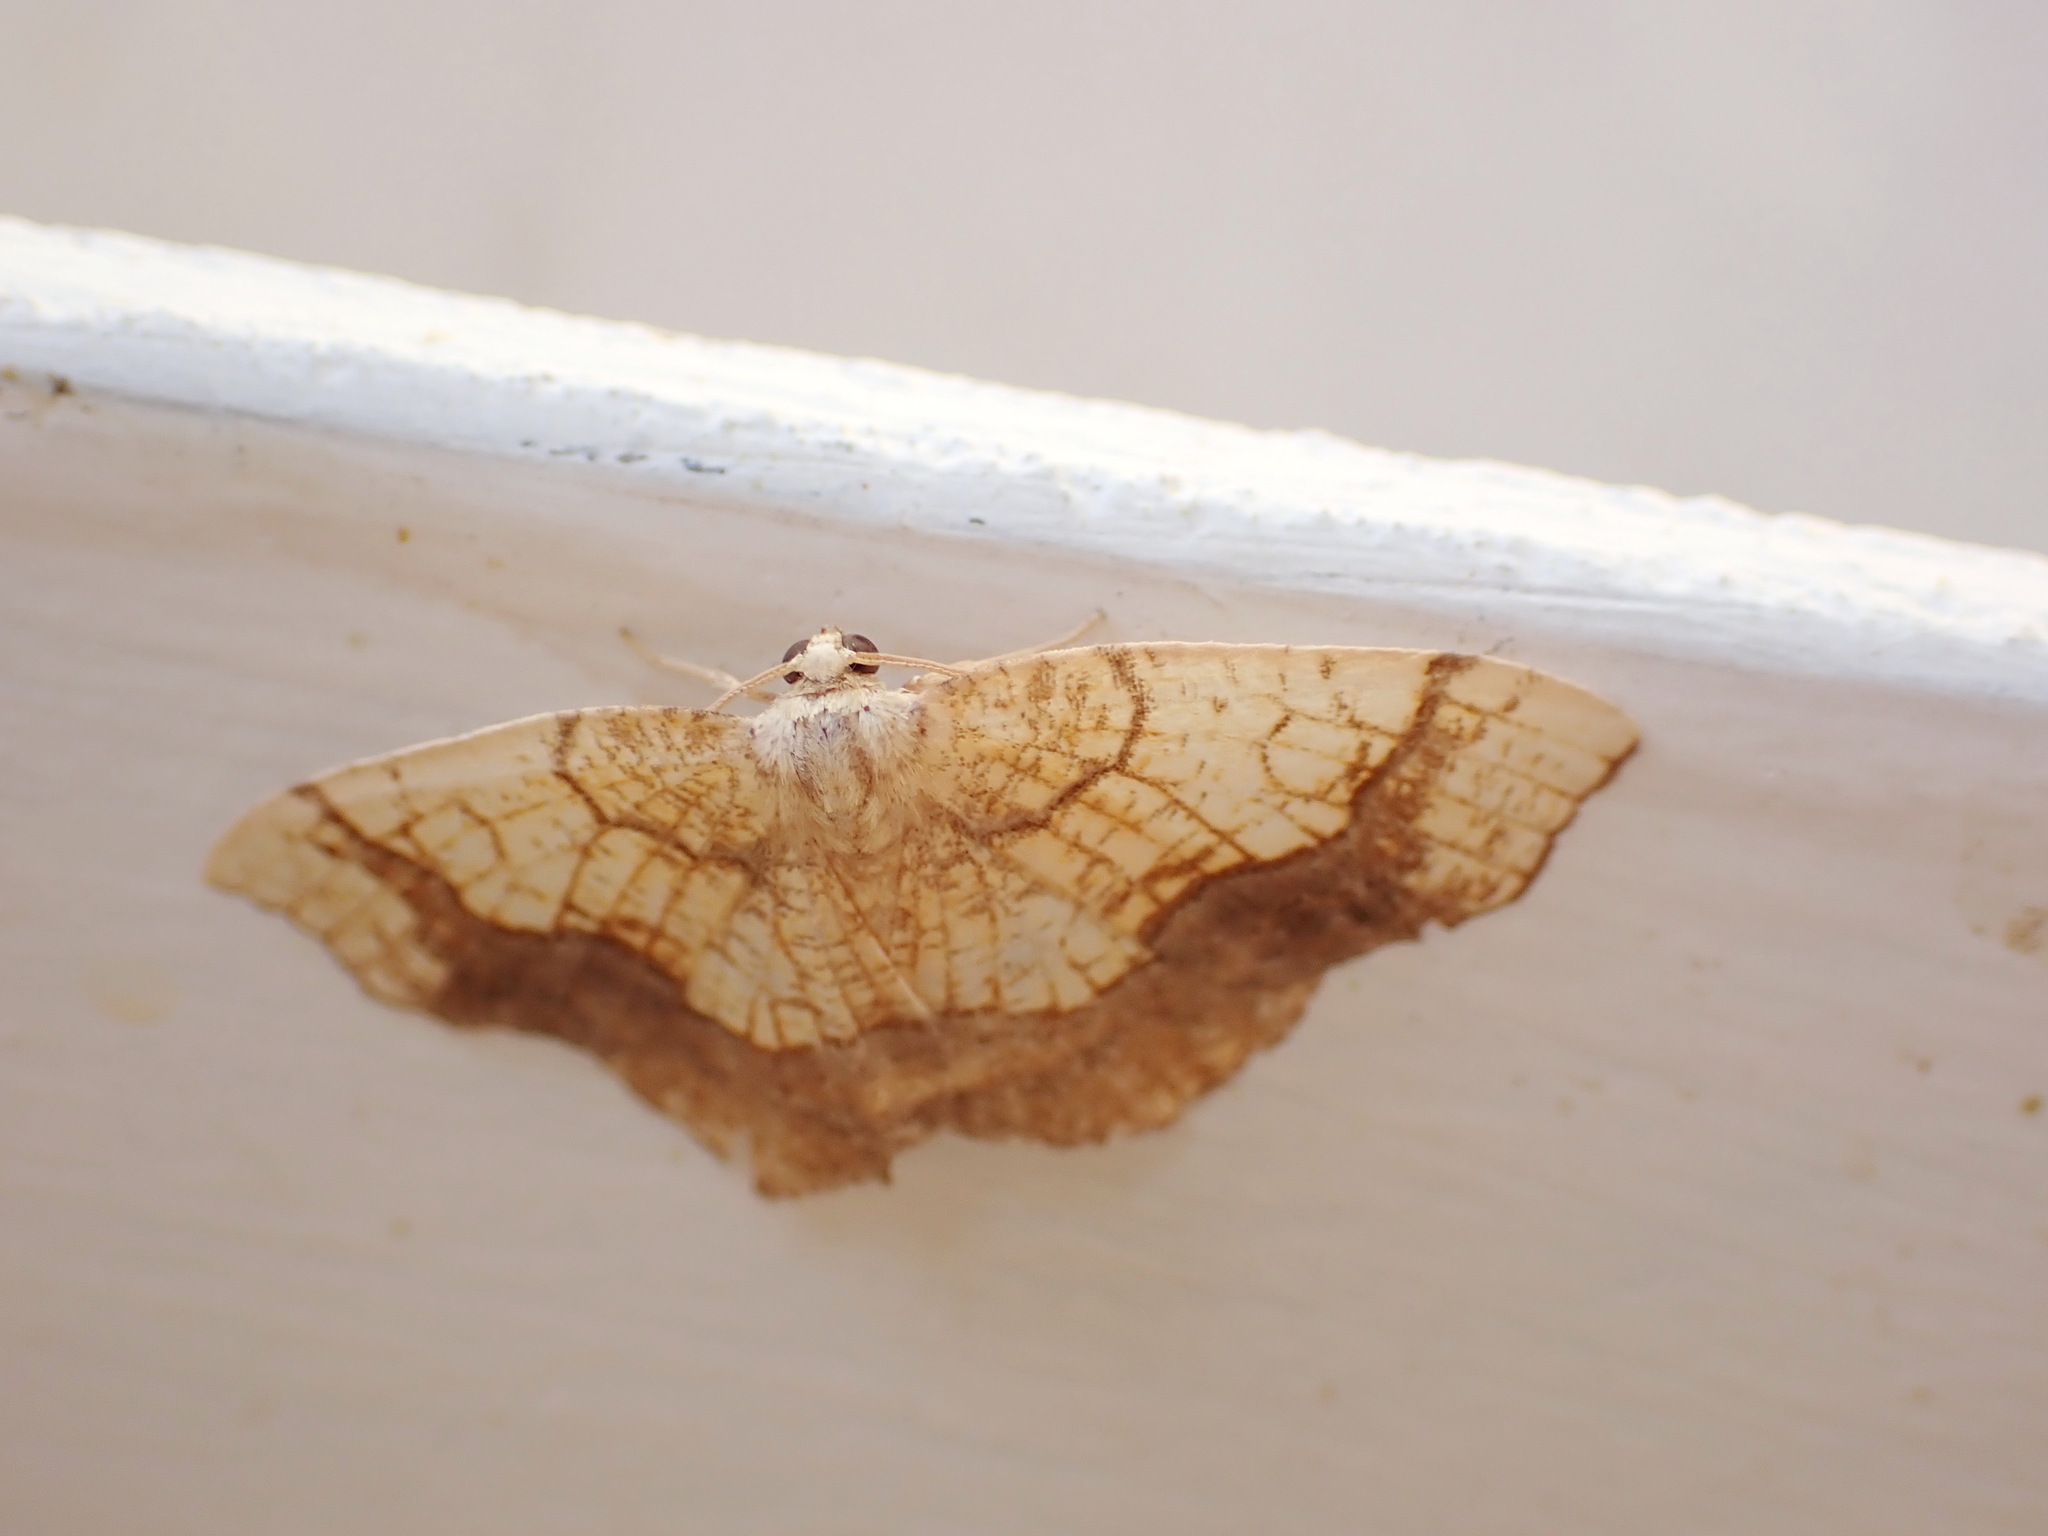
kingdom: Animalia
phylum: Arthropoda
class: Insecta
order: Lepidoptera
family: Geometridae
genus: Nematocampa
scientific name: Nematocampa resistaria
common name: Horned spanworm moth
